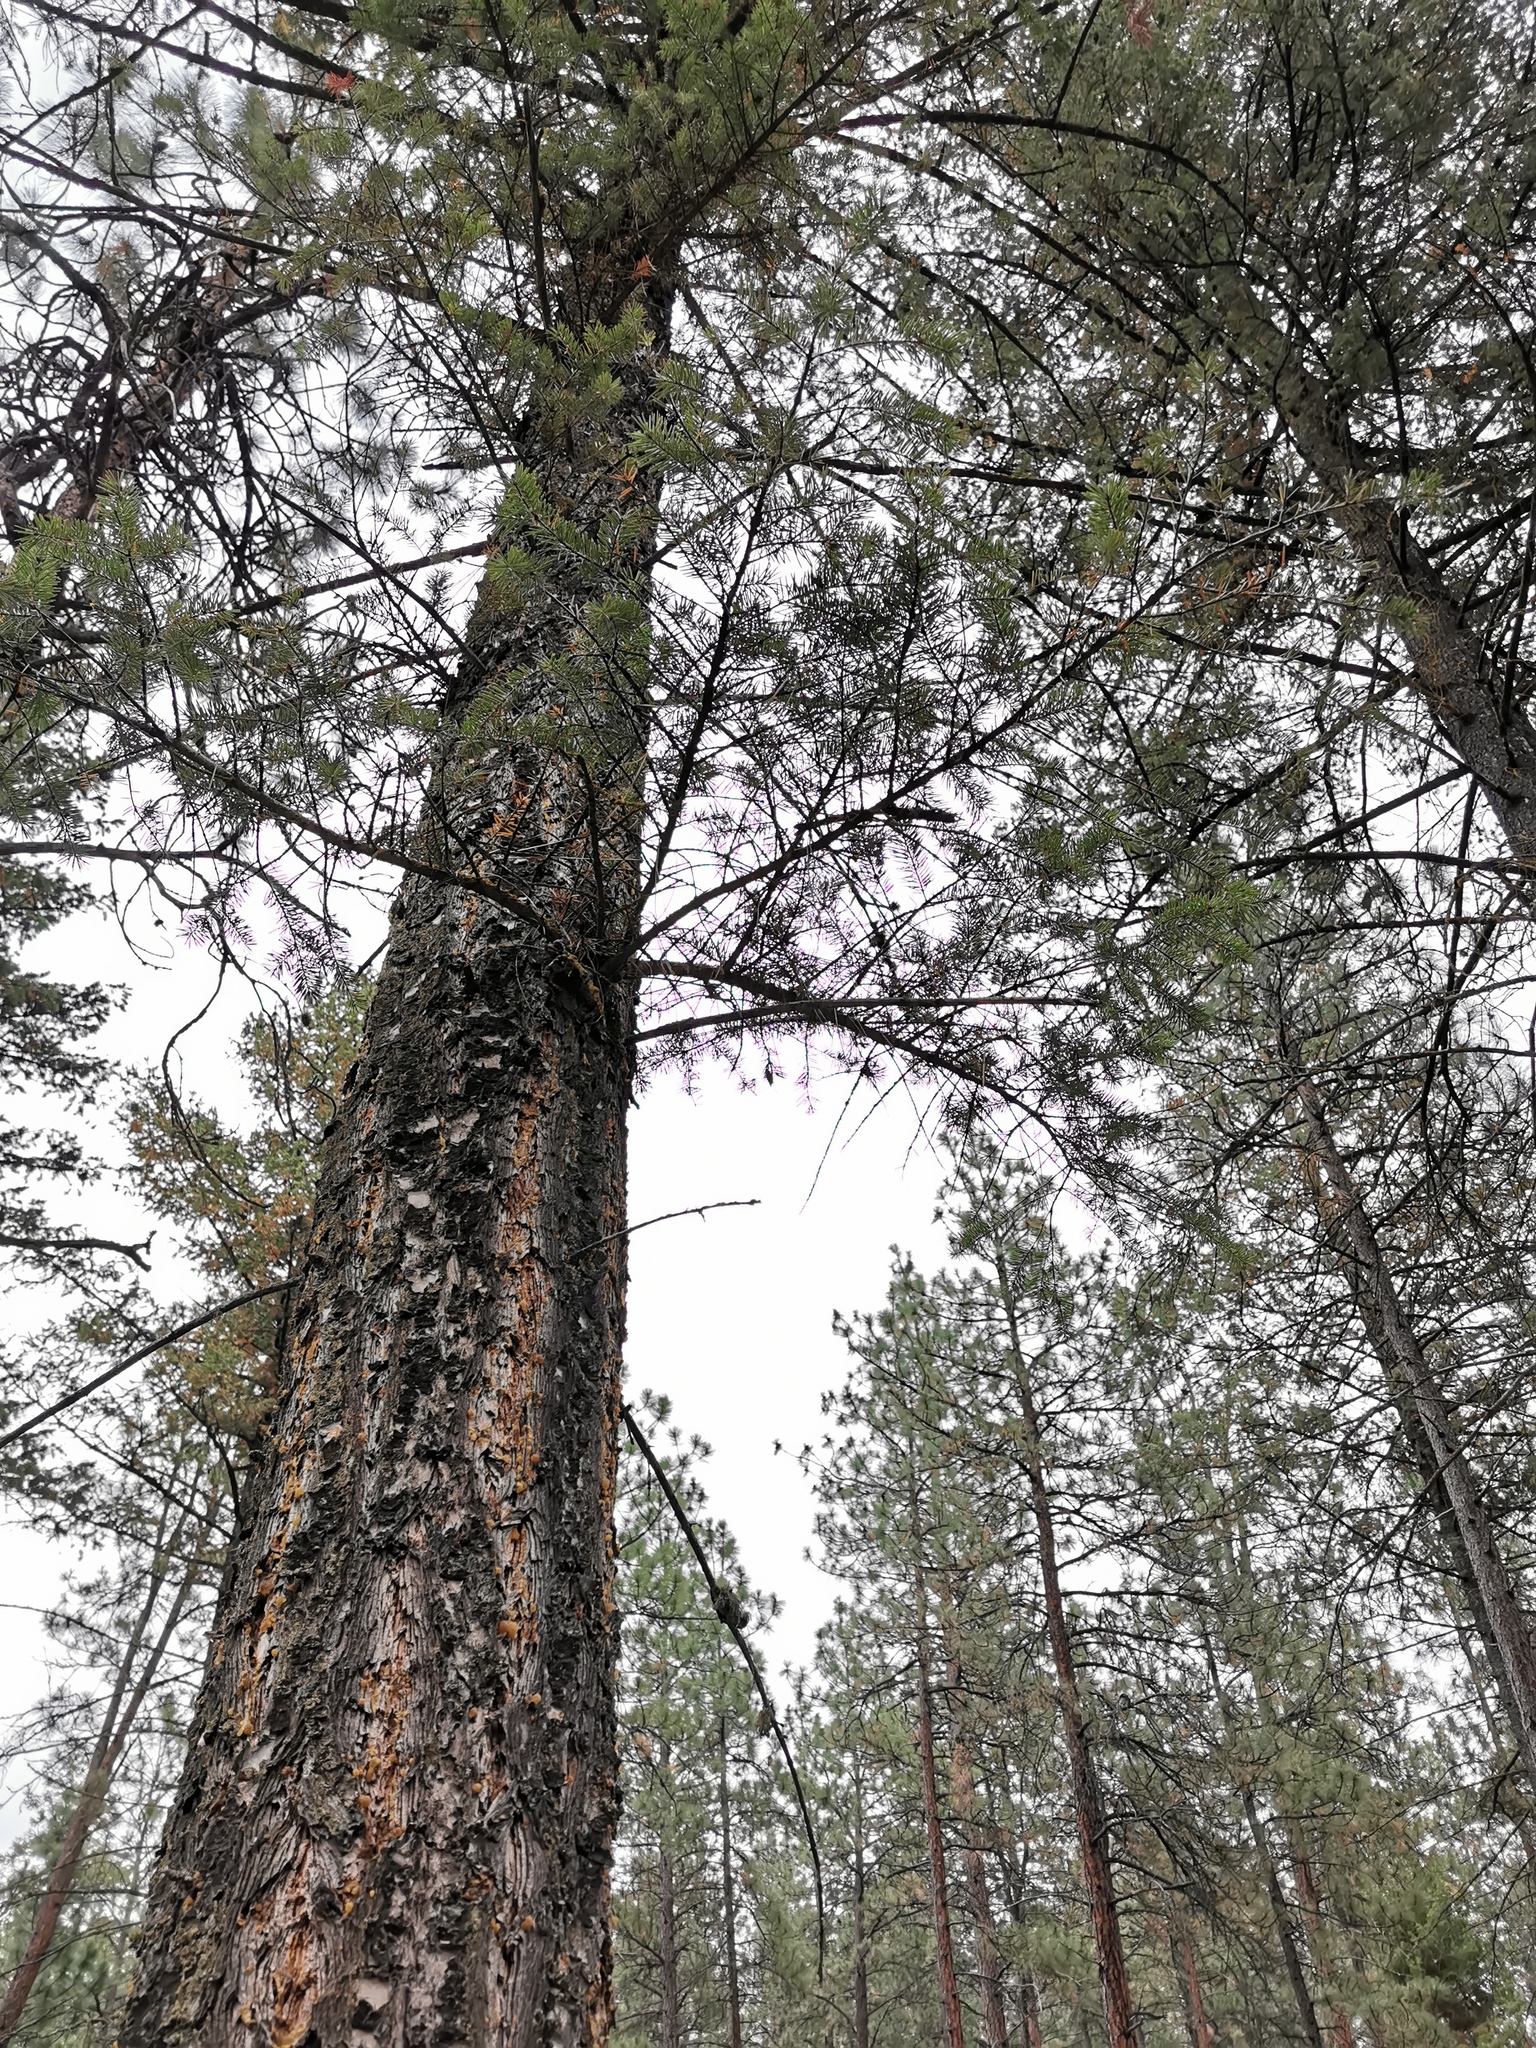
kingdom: Plantae
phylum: Tracheophyta
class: Pinopsida
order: Pinales
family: Pinaceae
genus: Pseudotsuga
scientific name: Pseudotsuga menziesii
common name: Douglas fir
